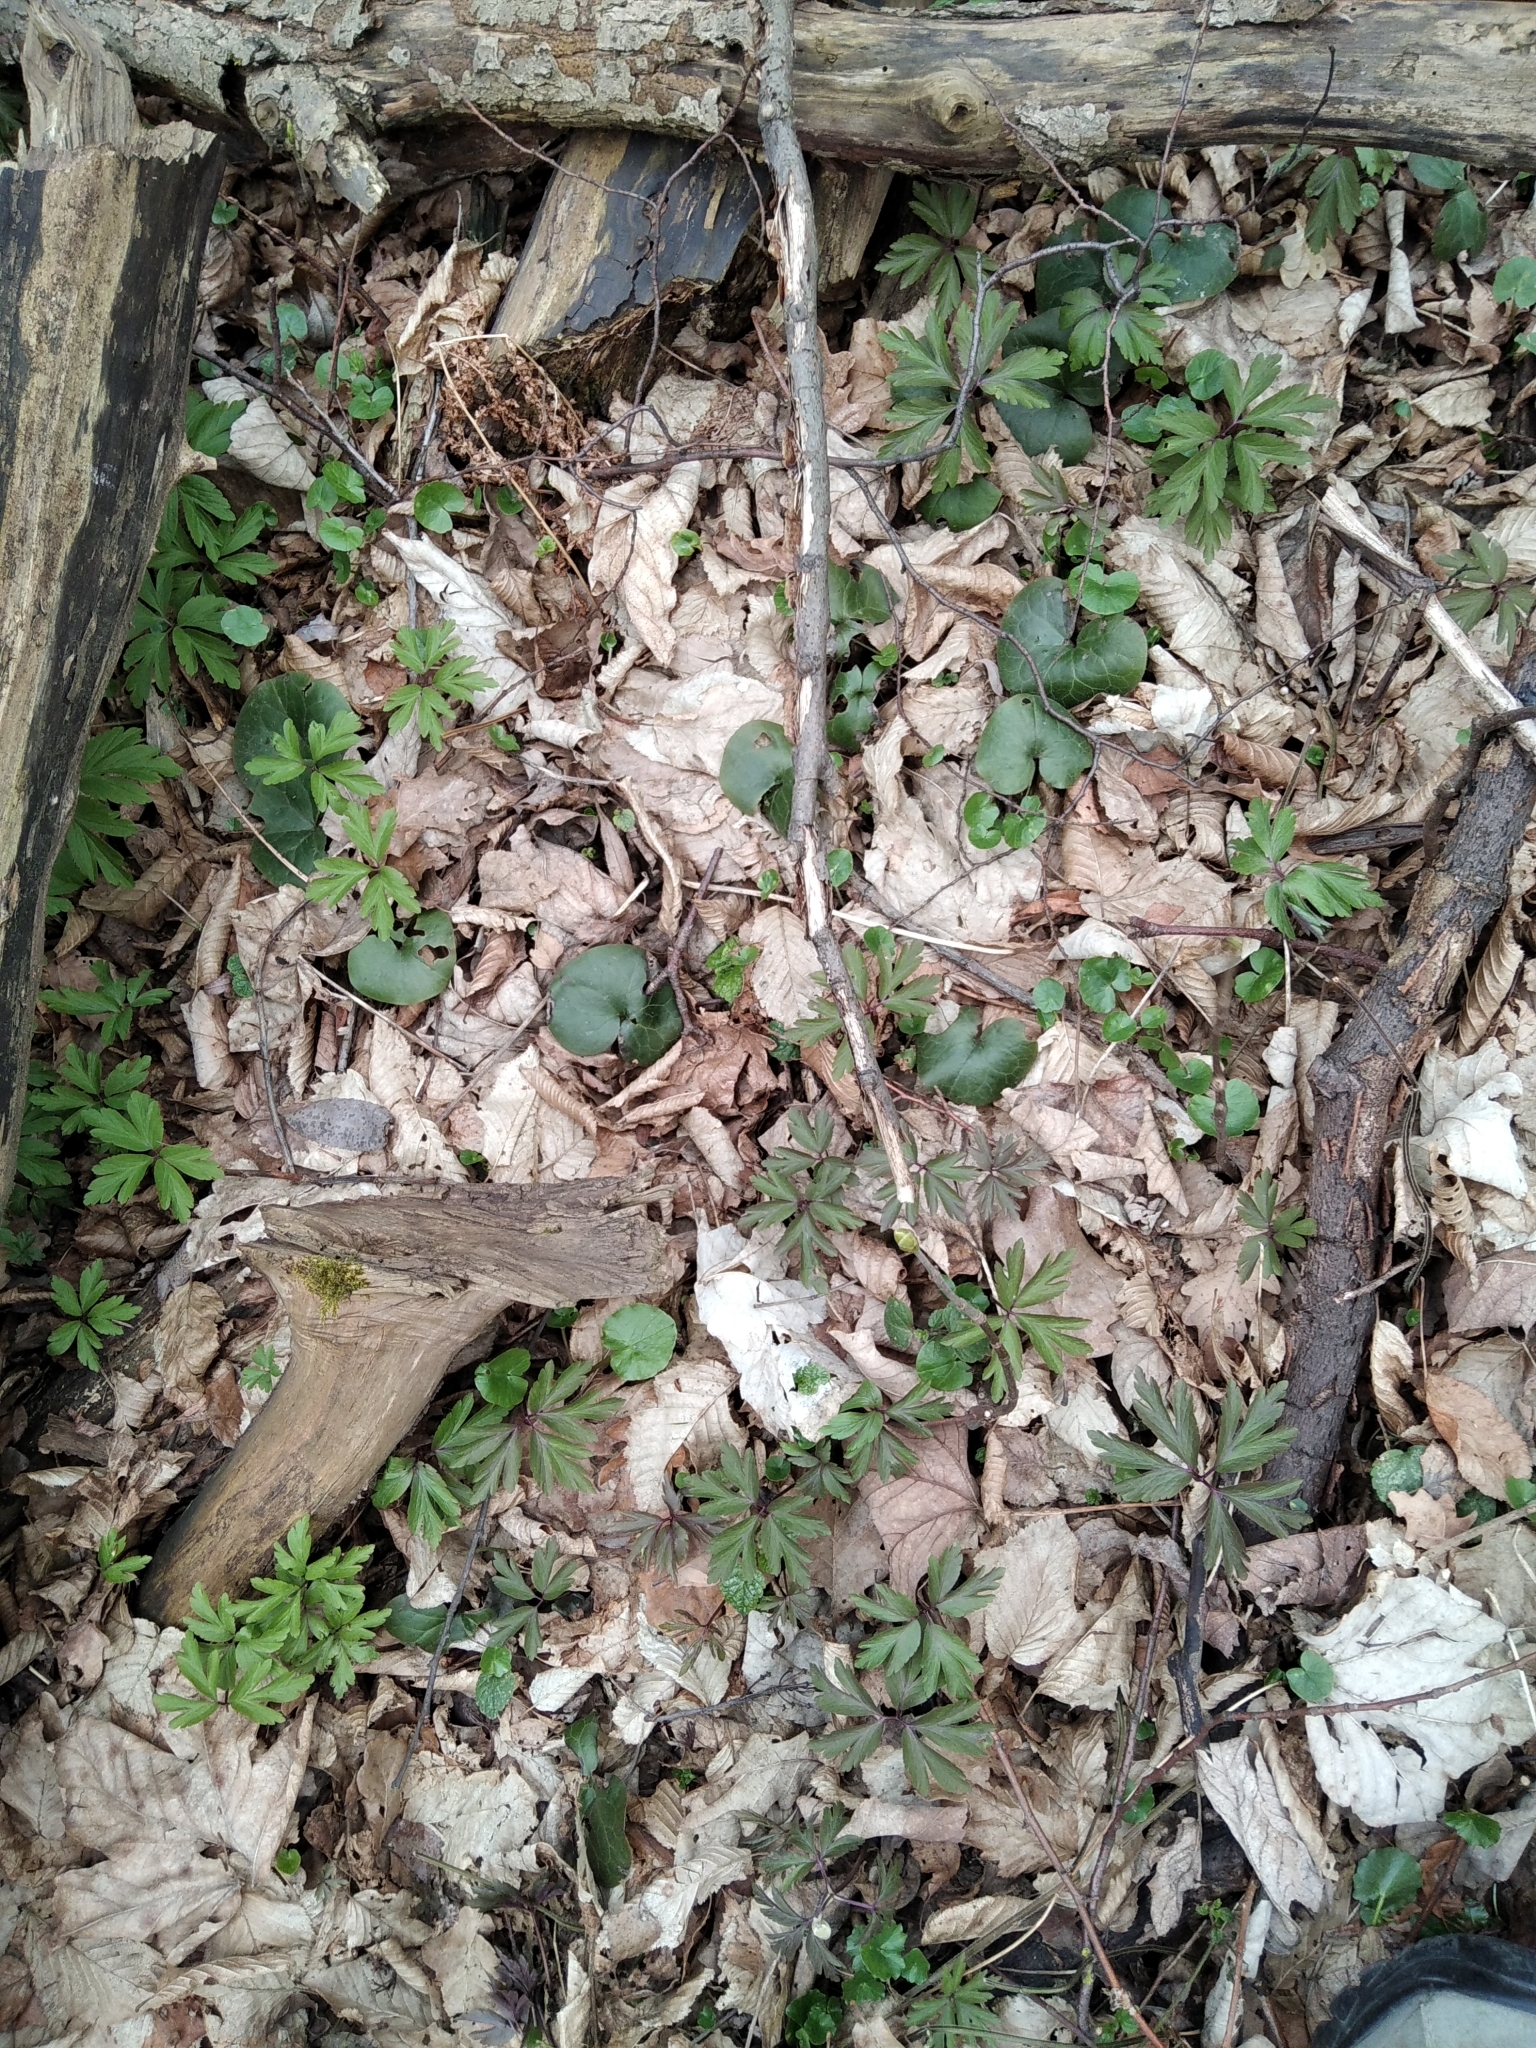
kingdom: Plantae
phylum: Tracheophyta
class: Magnoliopsida
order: Piperales
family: Aristolochiaceae
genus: Asarum
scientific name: Asarum europaeum
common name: Asarabacca
